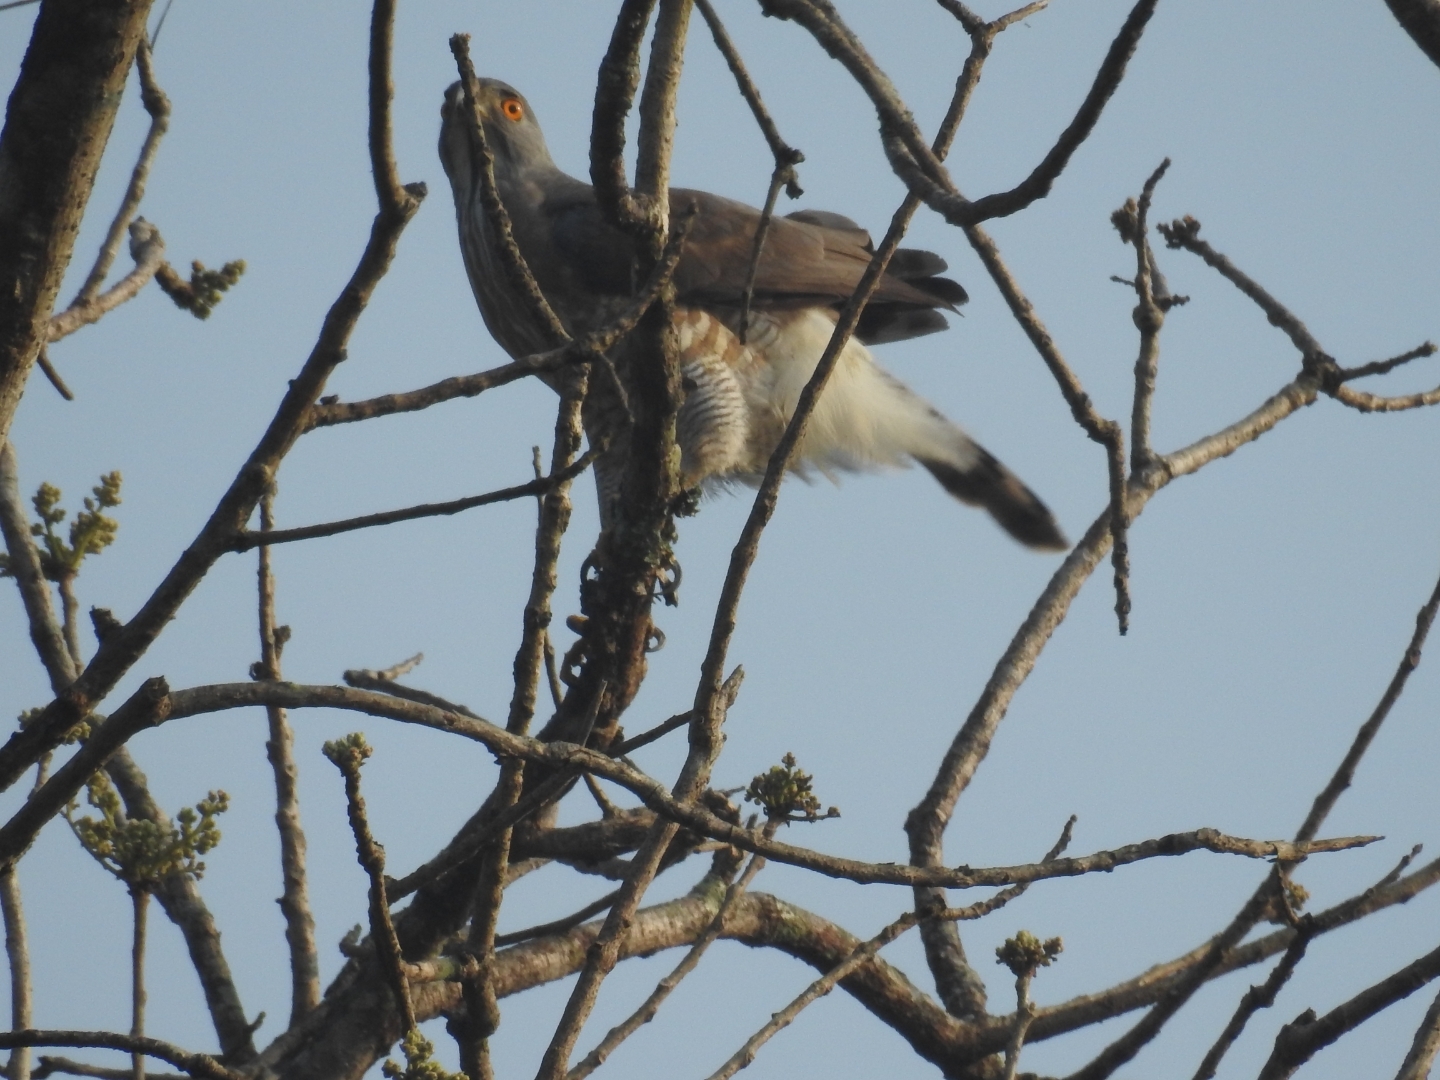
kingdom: Animalia
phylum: Chordata
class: Aves
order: Accipitriformes
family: Accipitridae
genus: Accipiter
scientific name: Accipiter trivirgatus
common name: Crested goshawk
